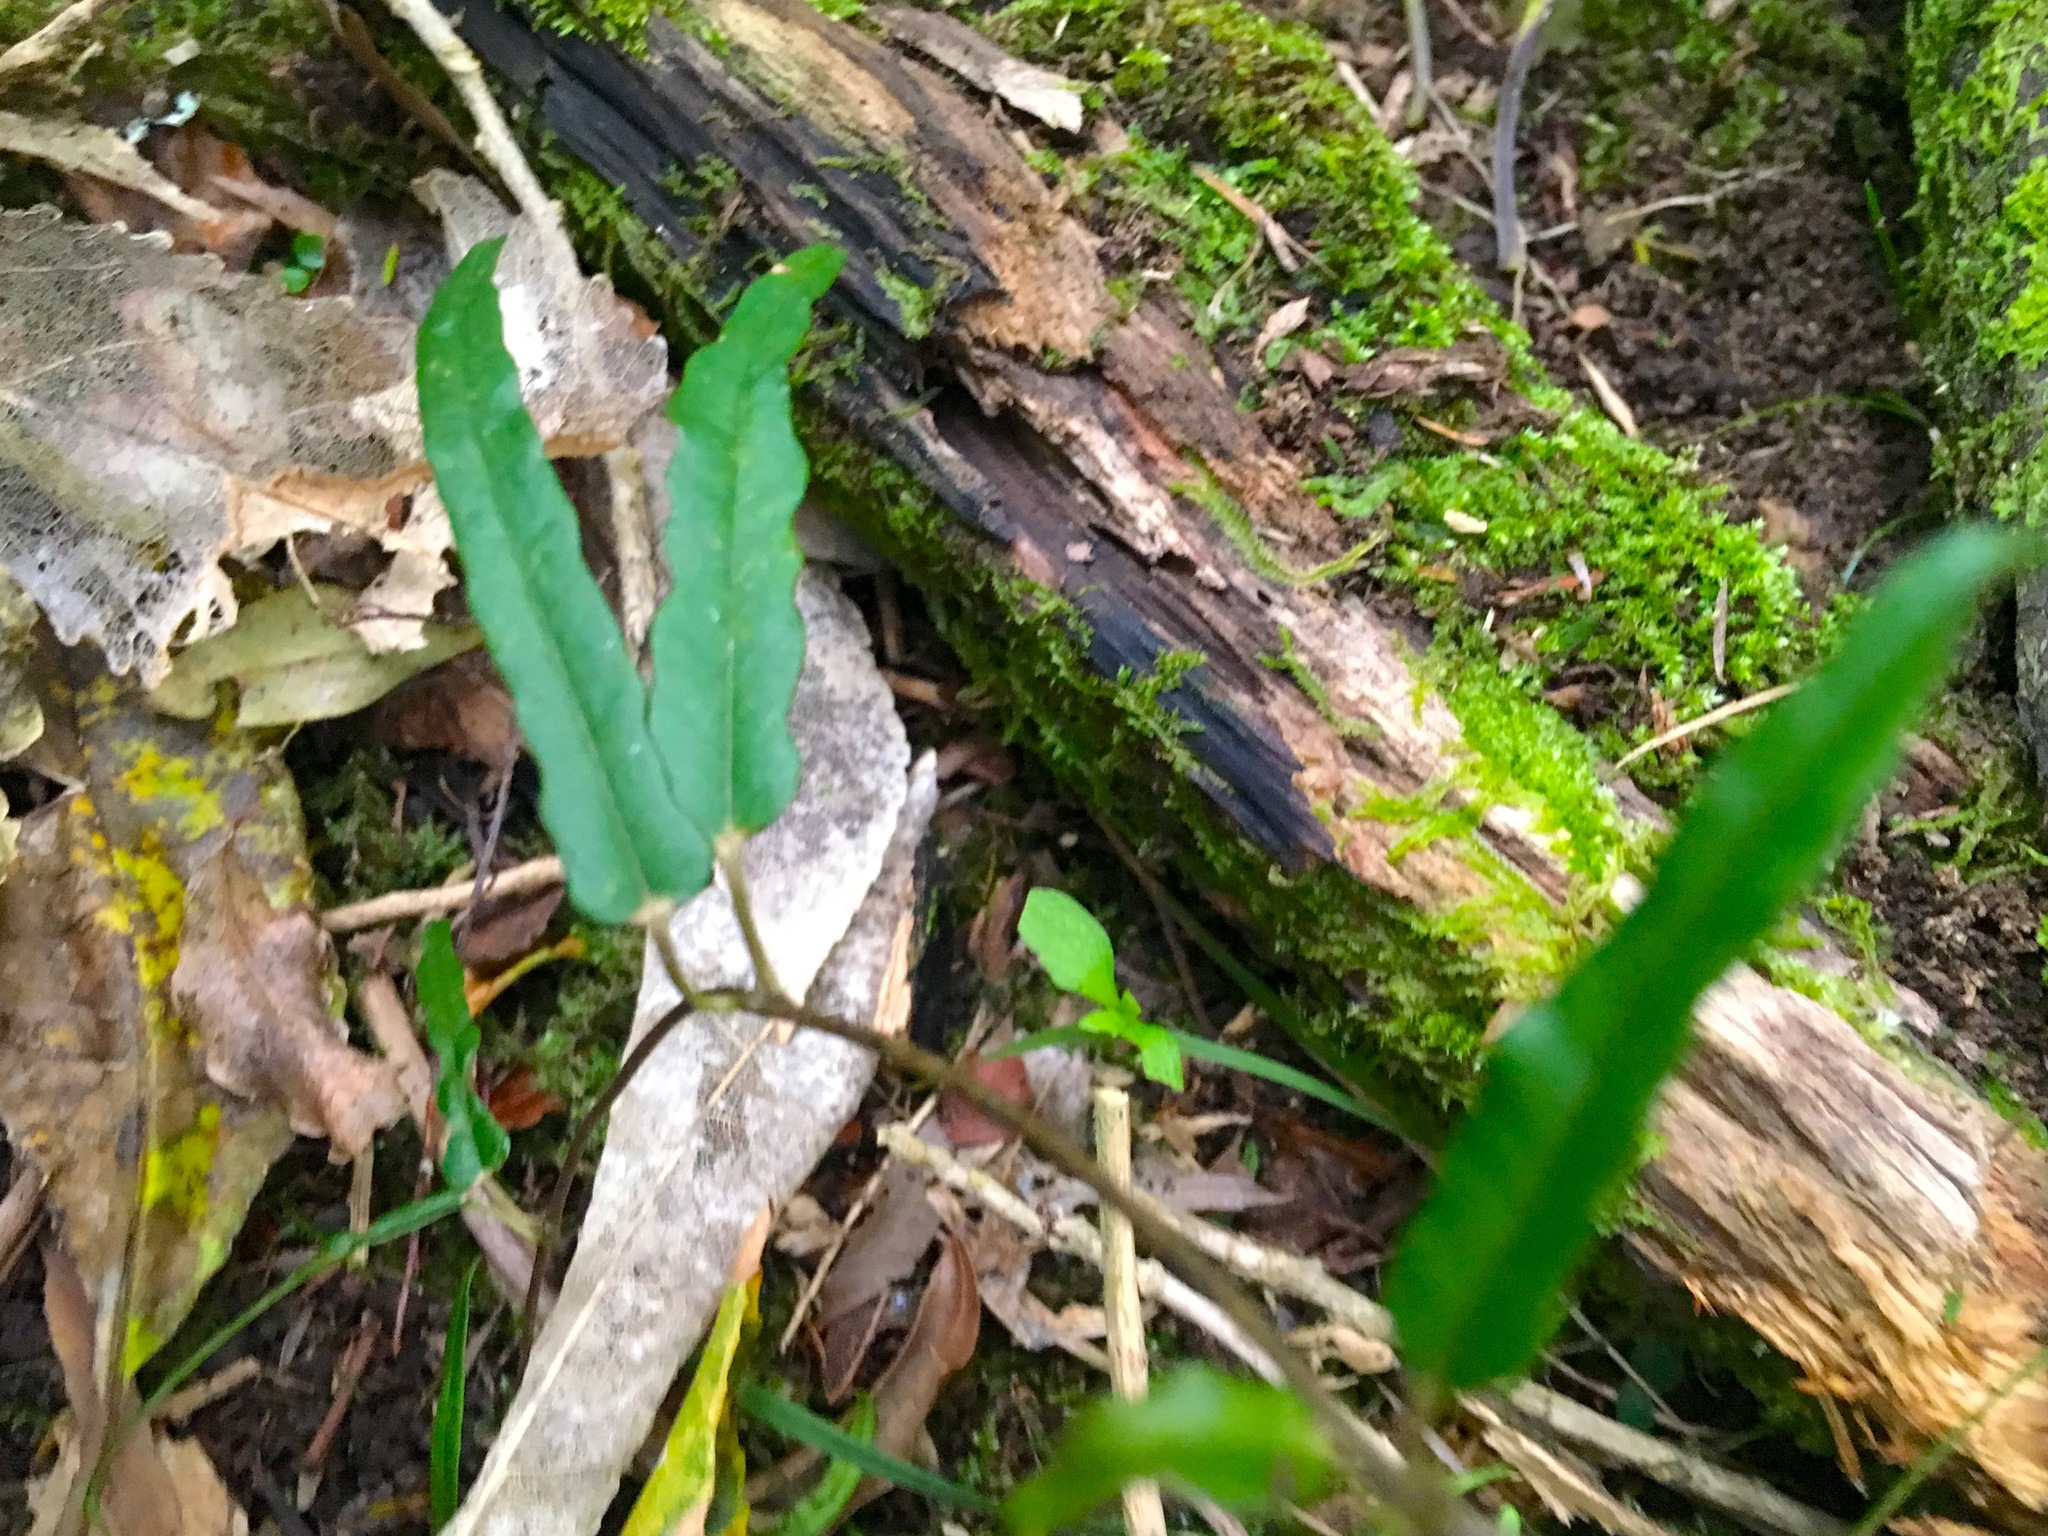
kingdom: Plantae
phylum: Tracheophyta
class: Magnoliopsida
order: Gentianales
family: Apocynaceae
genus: Parsonsia
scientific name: Parsonsia heterophylla
